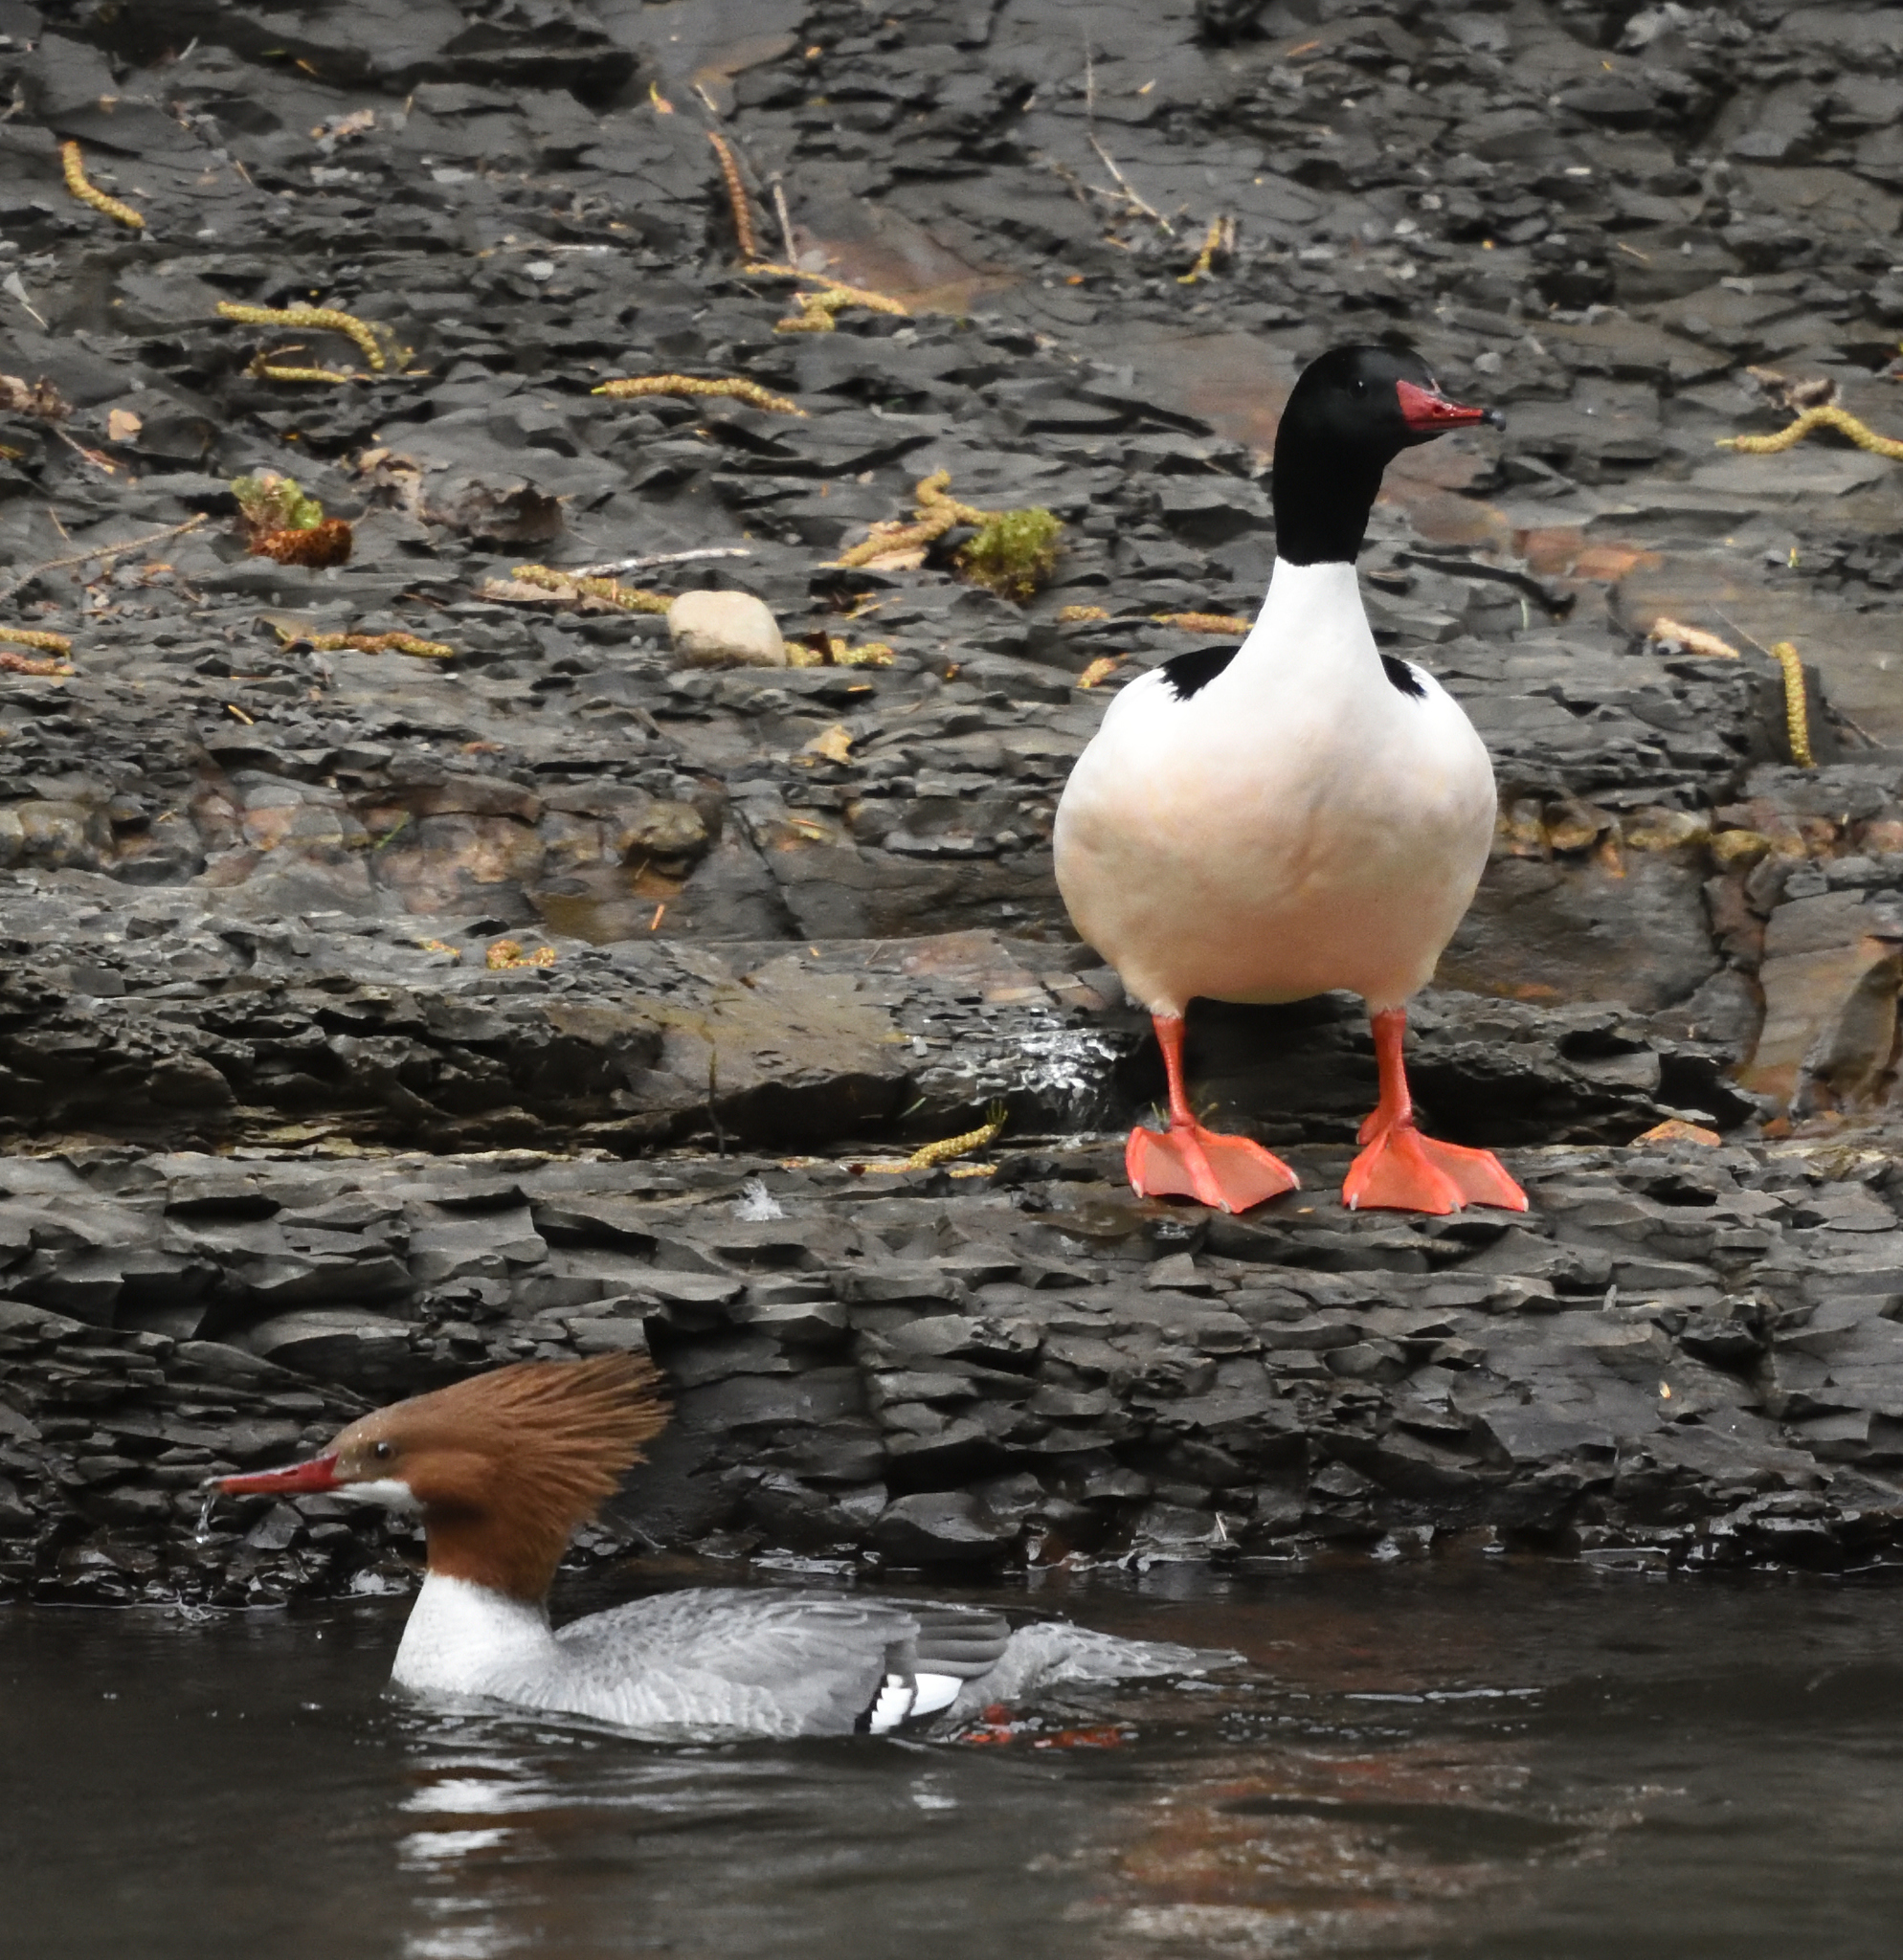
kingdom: Animalia
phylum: Chordata
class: Aves
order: Anseriformes
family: Anatidae
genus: Mergus
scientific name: Mergus merganser
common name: Common merganser
